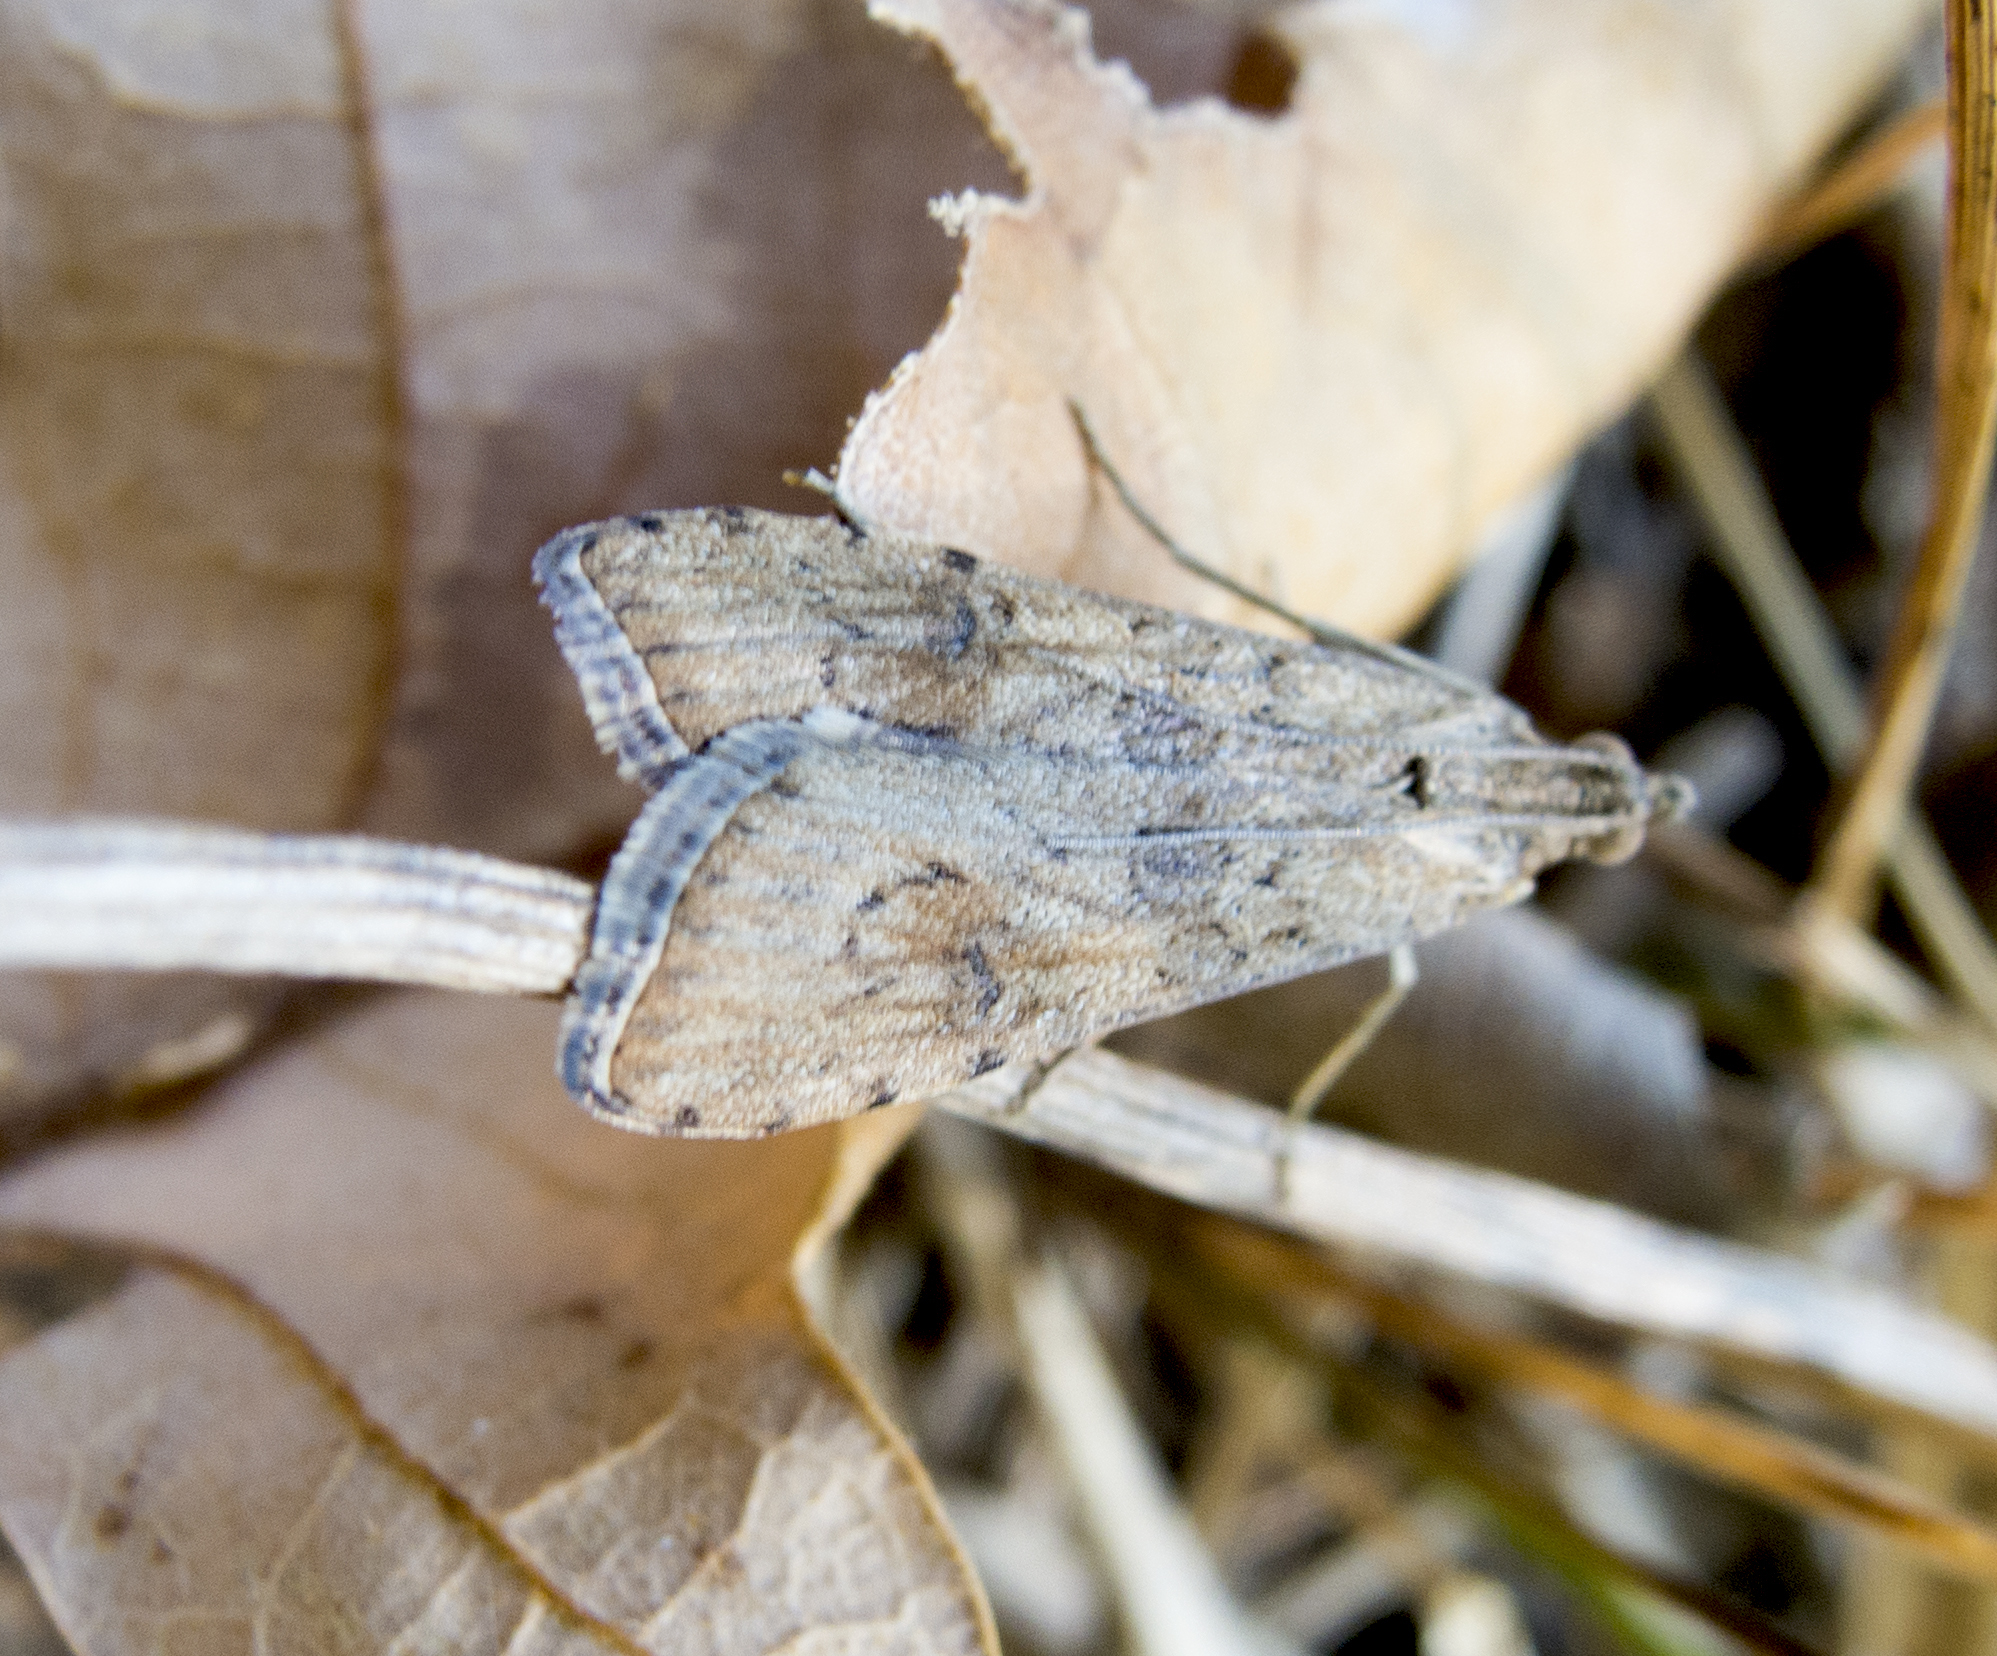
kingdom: Animalia
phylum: Arthropoda
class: Insecta
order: Lepidoptera
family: Crambidae
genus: Nomophila
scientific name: Nomophila noctuella
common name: Rush veneer
